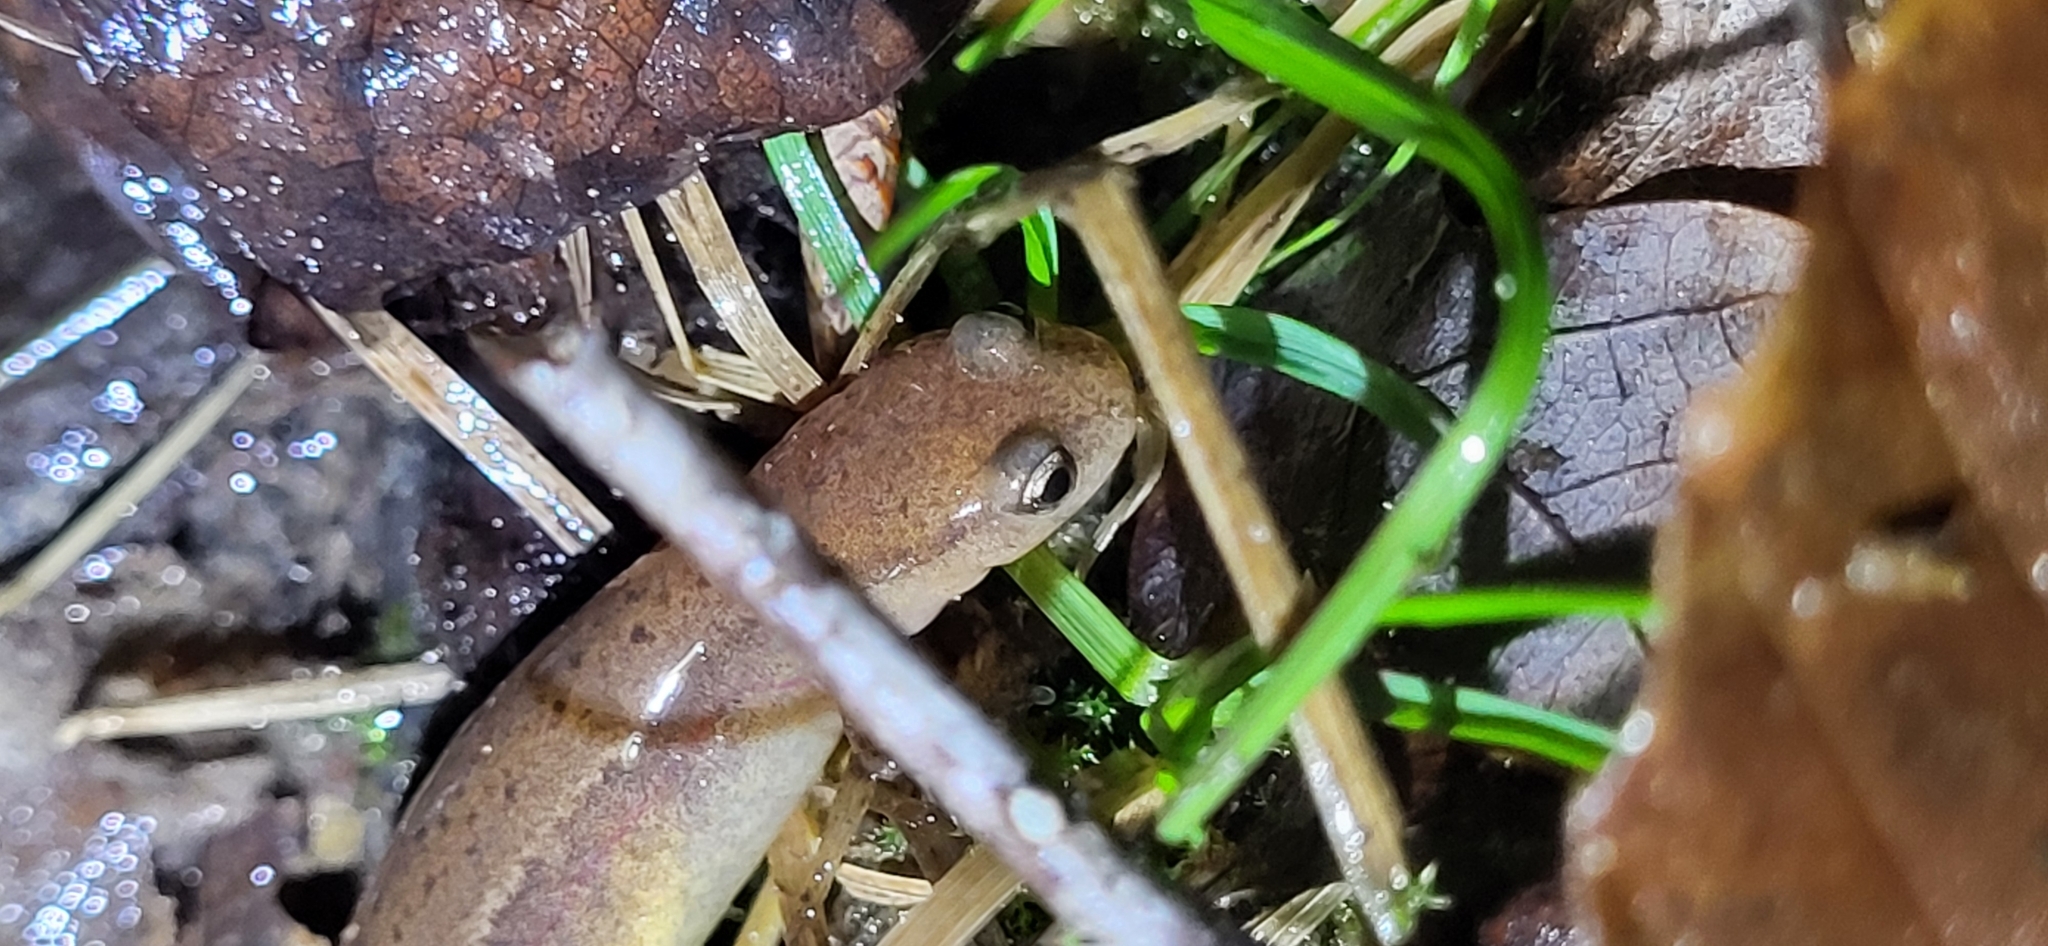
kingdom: Animalia
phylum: Chordata
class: Amphibia
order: Caudata
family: Plethodontidae
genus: Eurycea
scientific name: Eurycea aquatica
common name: Brown-backed salamander
